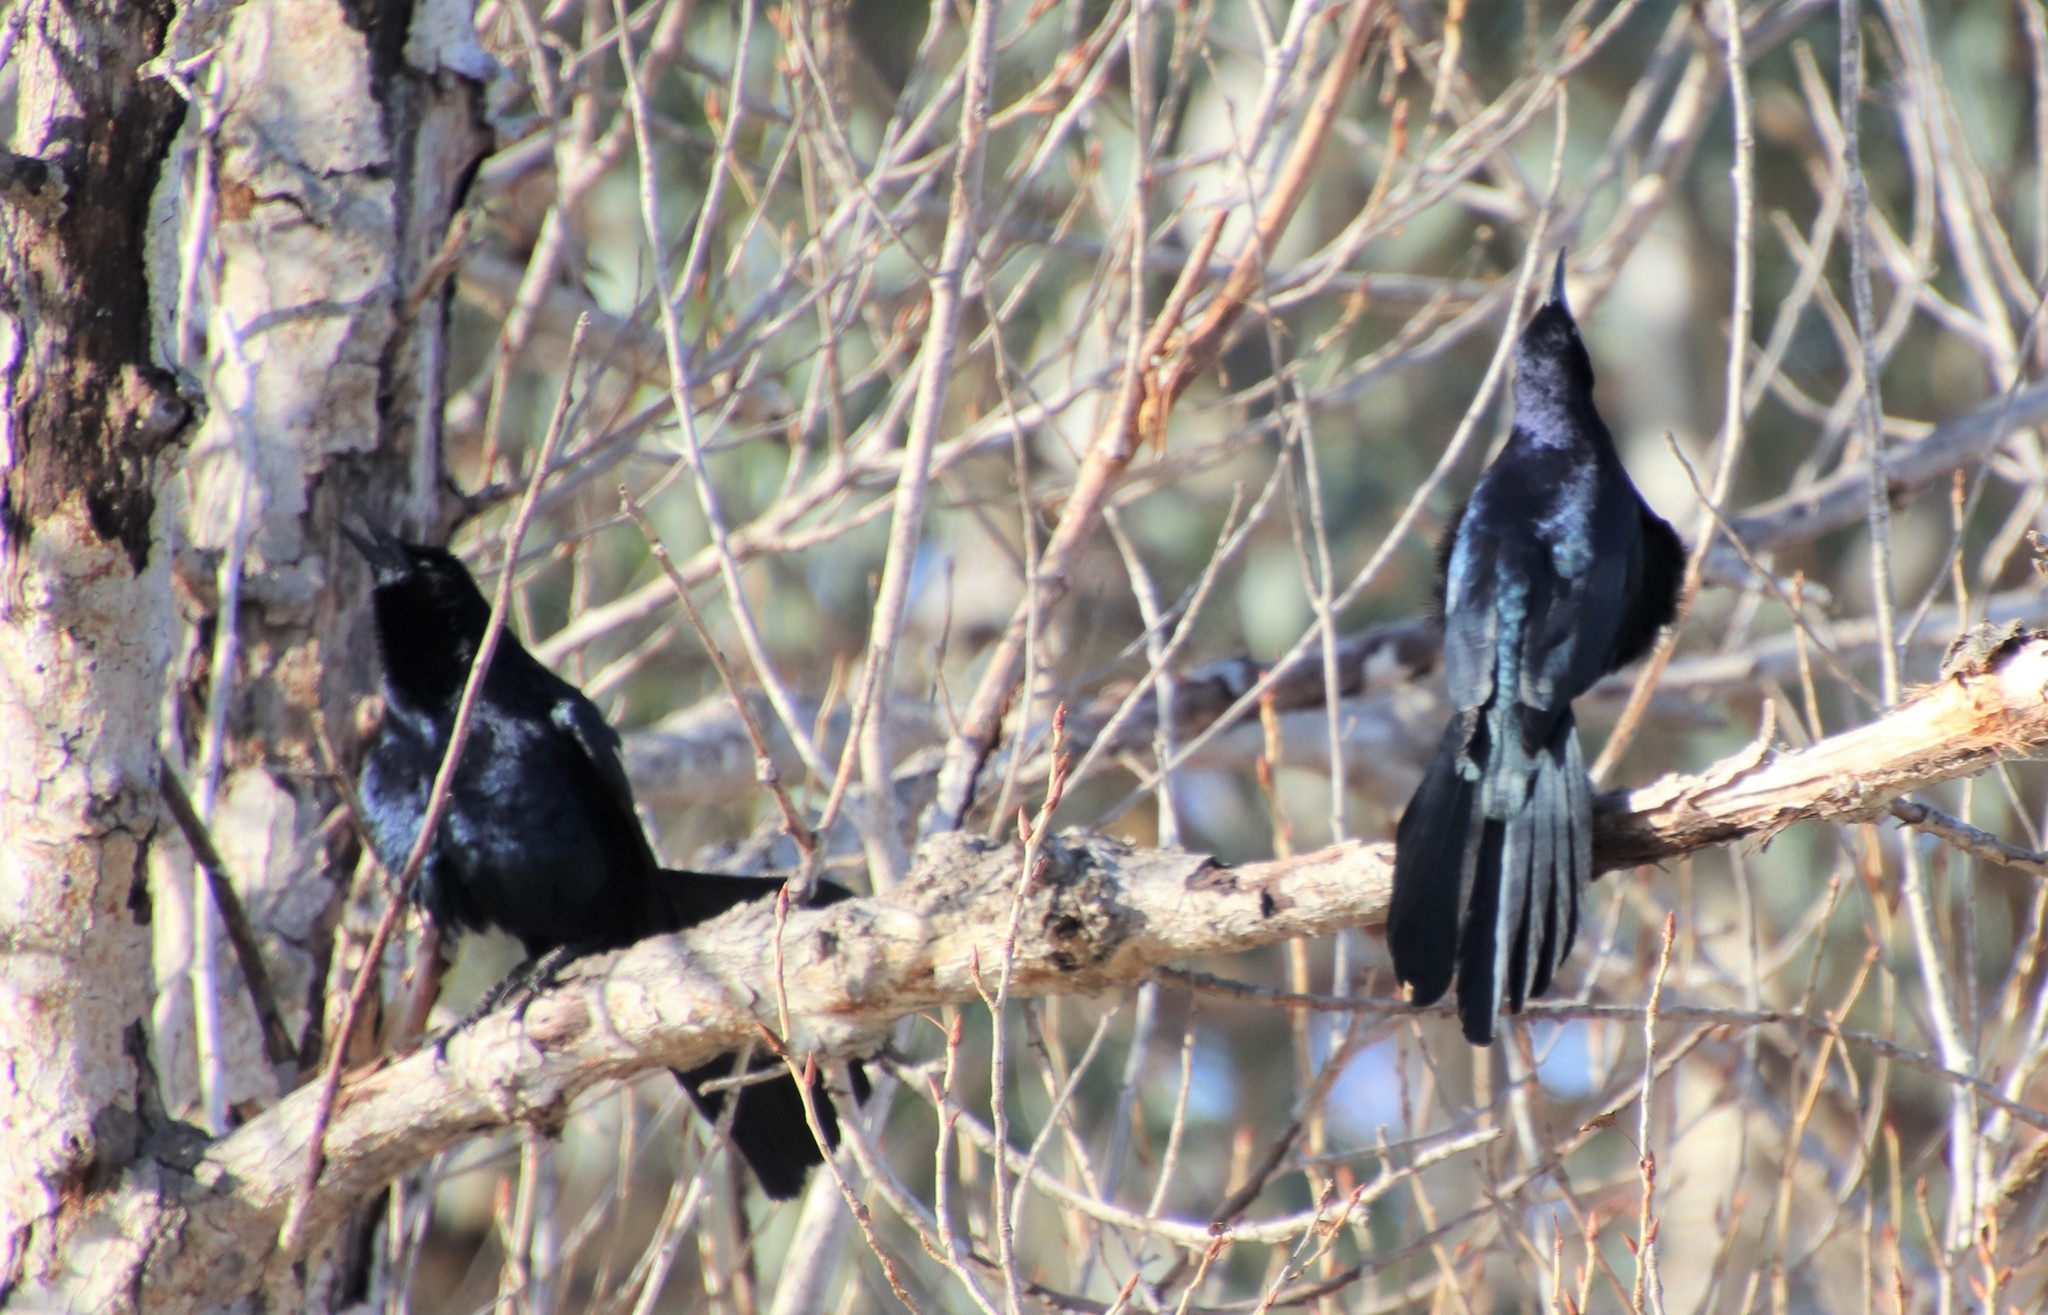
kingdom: Animalia
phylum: Chordata
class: Aves
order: Passeriformes
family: Icteridae
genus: Quiscalus
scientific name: Quiscalus mexicanus
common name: Great-tailed grackle
